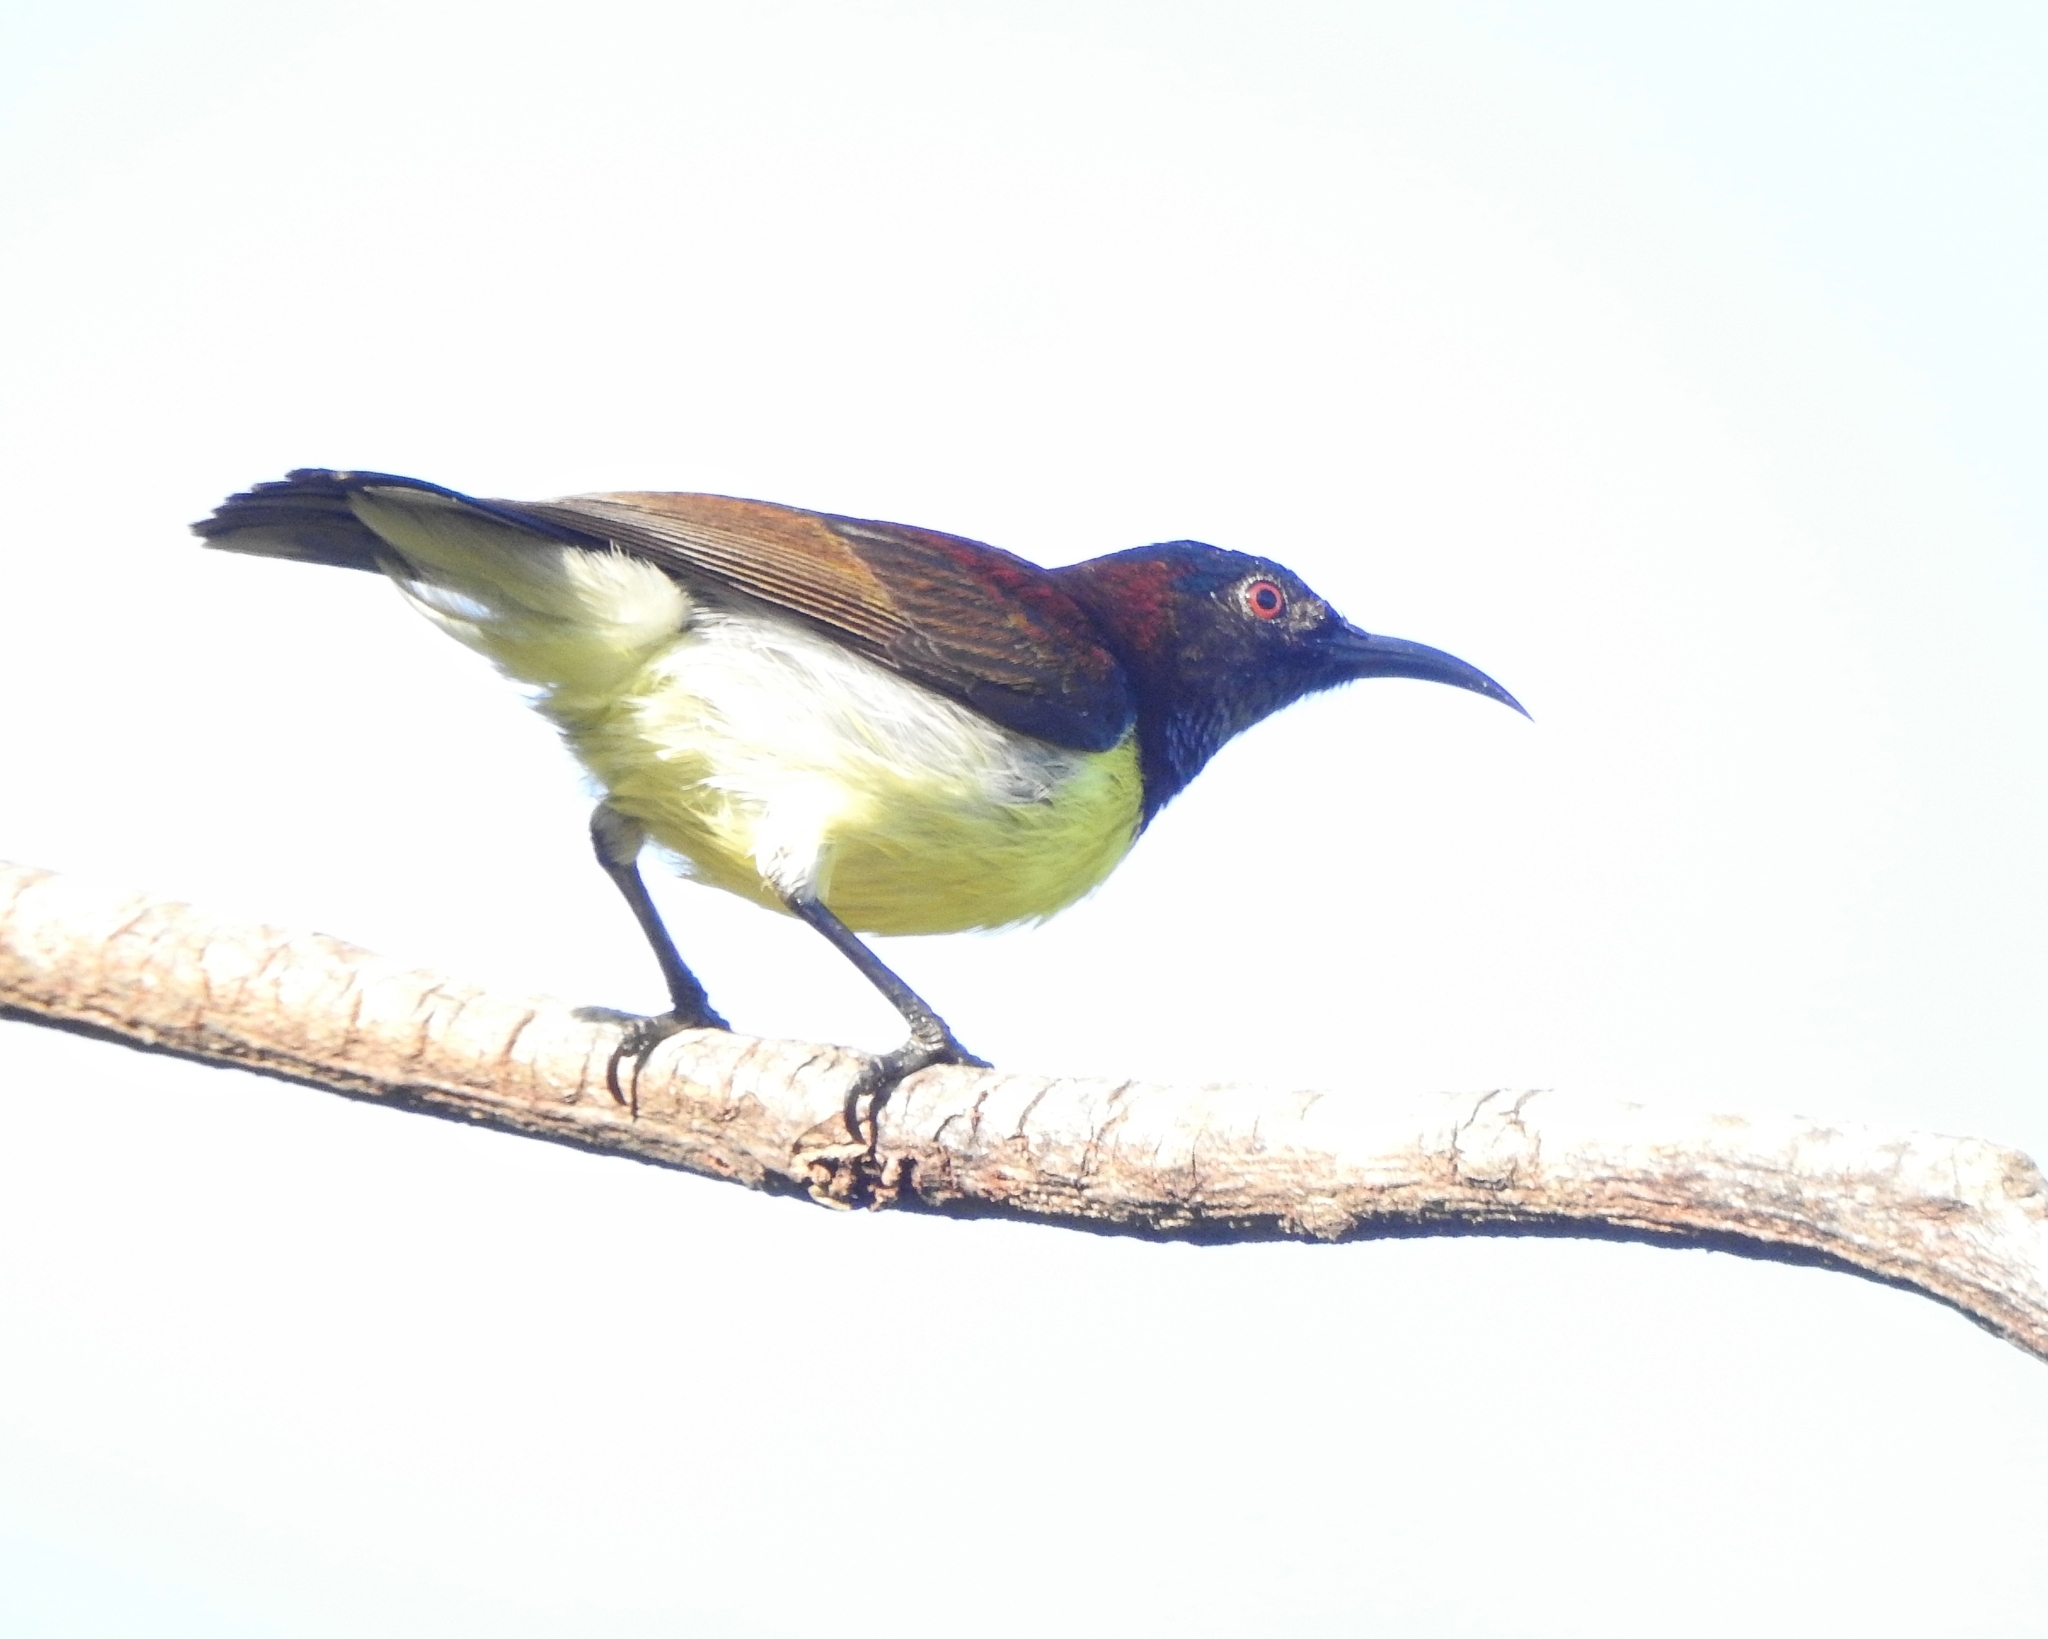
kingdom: Animalia
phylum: Chordata
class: Aves
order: Passeriformes
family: Nectariniidae
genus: Leptocoma
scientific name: Leptocoma zeylonica
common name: Purple-rumped sunbird
